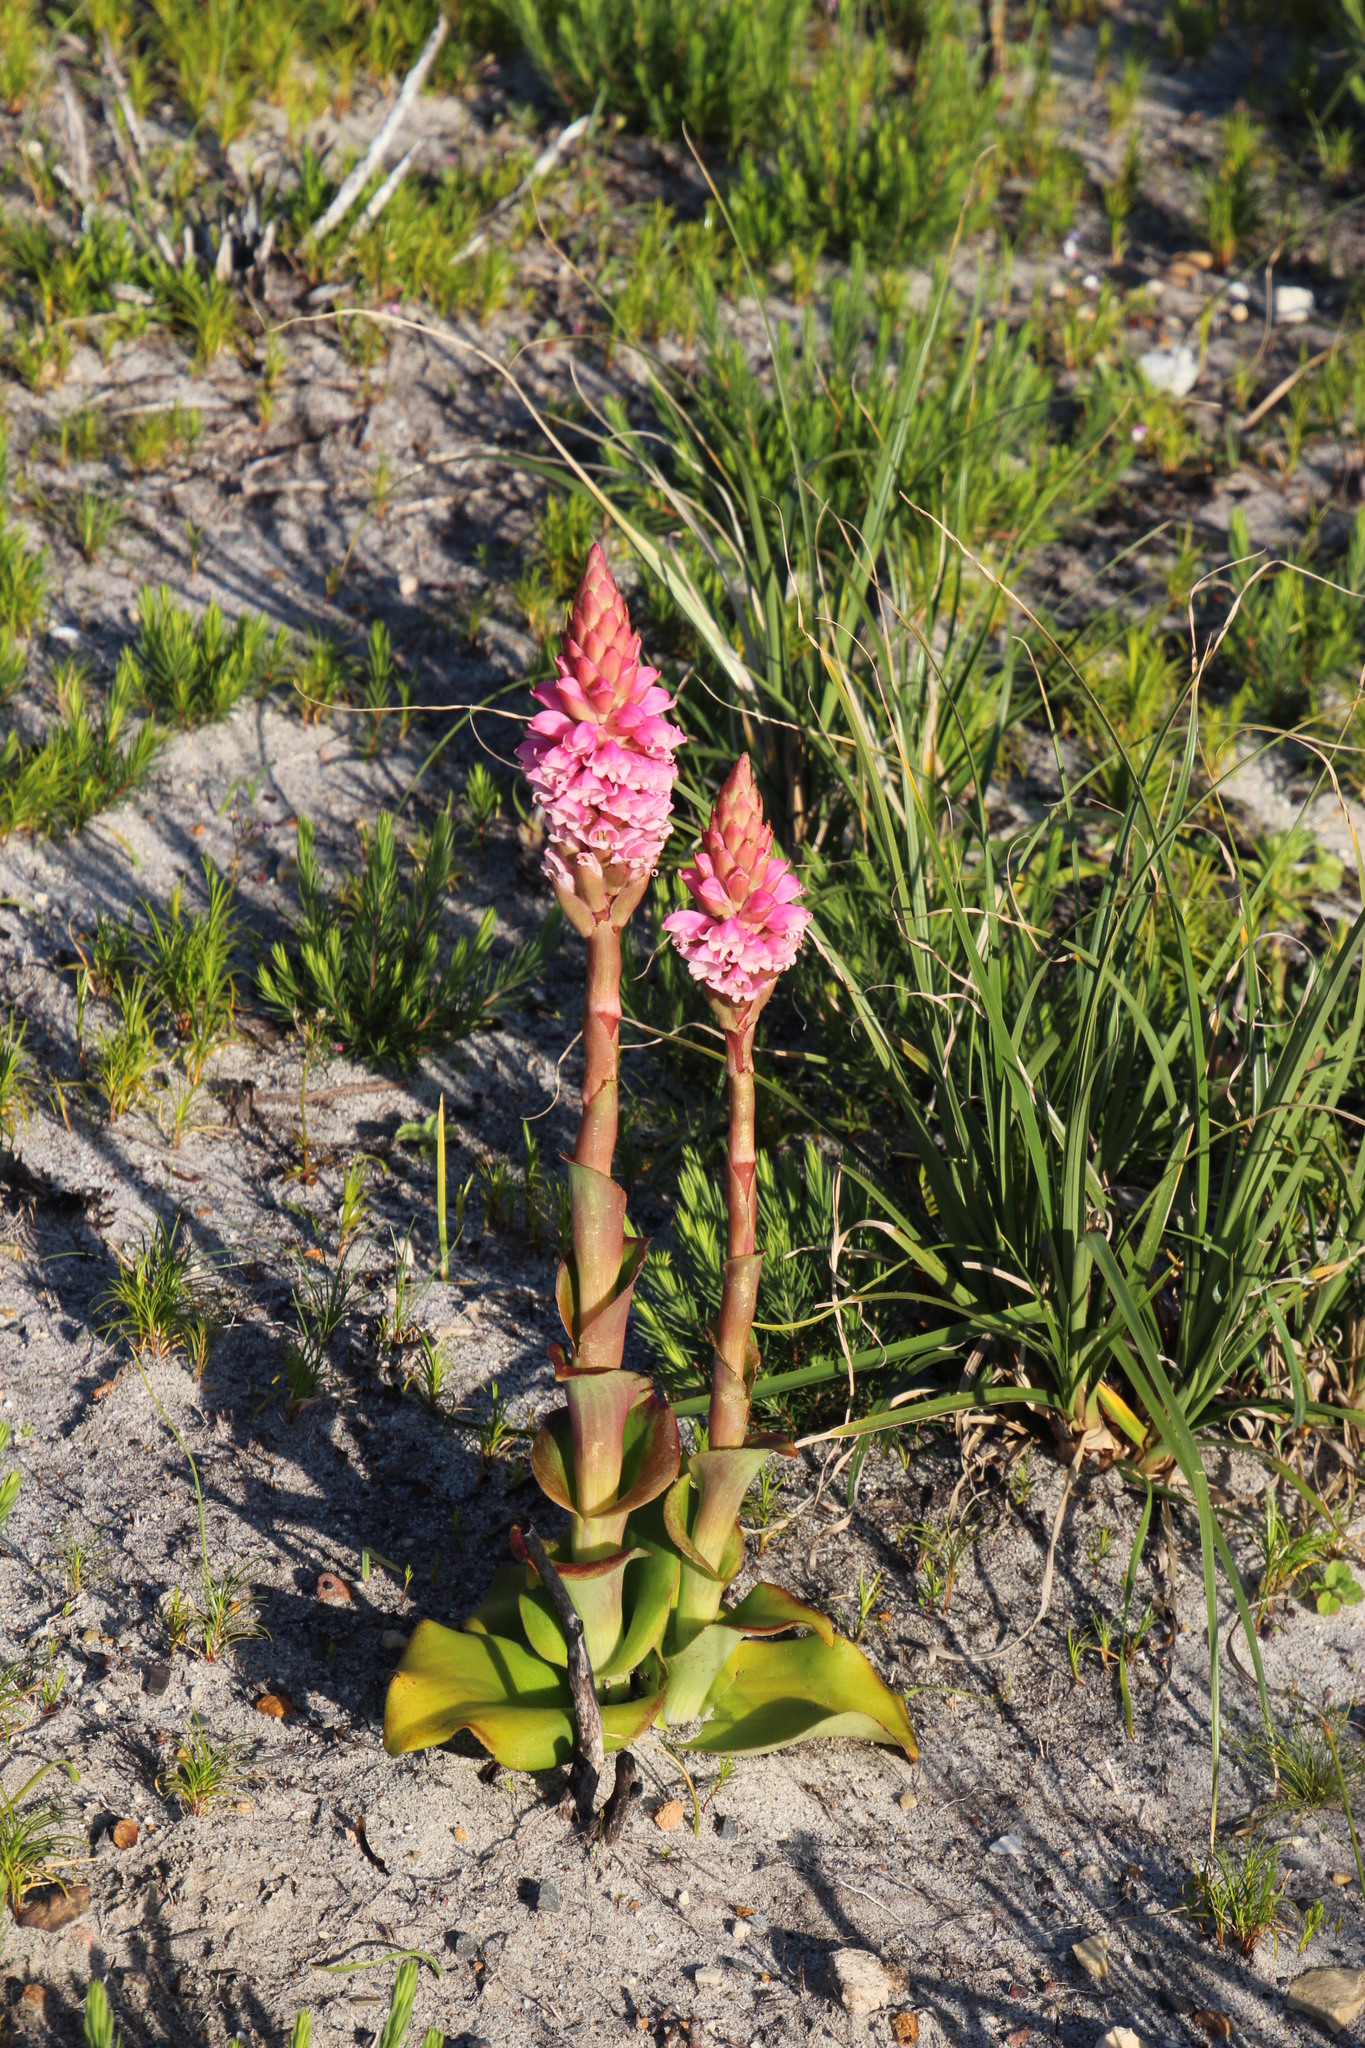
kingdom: Plantae
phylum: Tracheophyta
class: Liliopsida
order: Asparagales
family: Orchidaceae
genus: Satyrium
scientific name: Satyrium carneum
